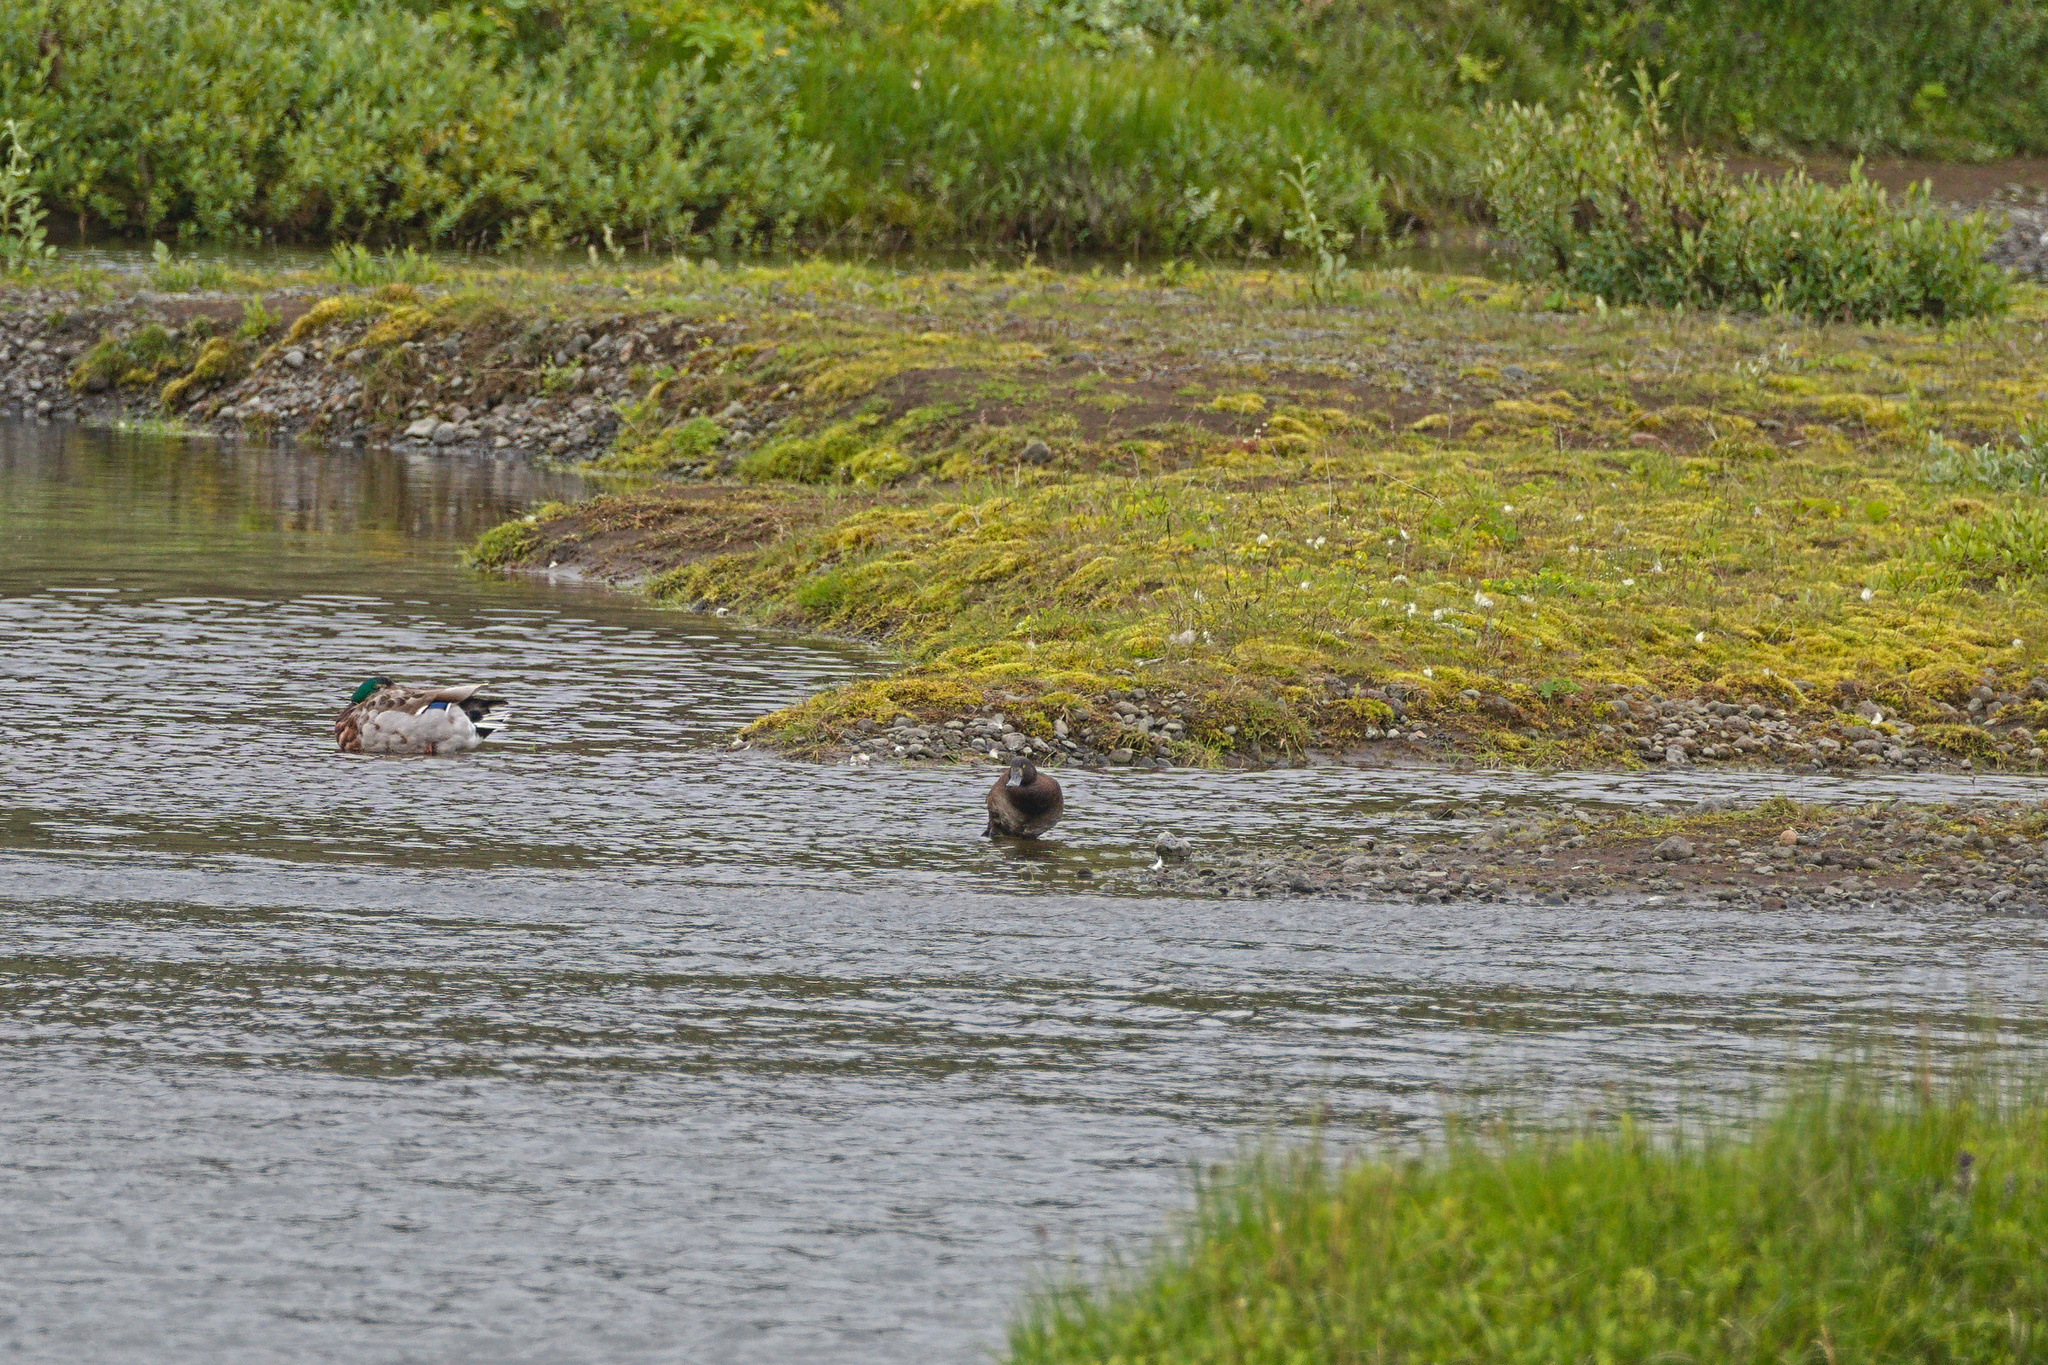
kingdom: Animalia
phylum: Chordata
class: Aves
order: Anseriformes
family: Anatidae
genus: Aythya
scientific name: Aythya fuligula
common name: Tufted duck
